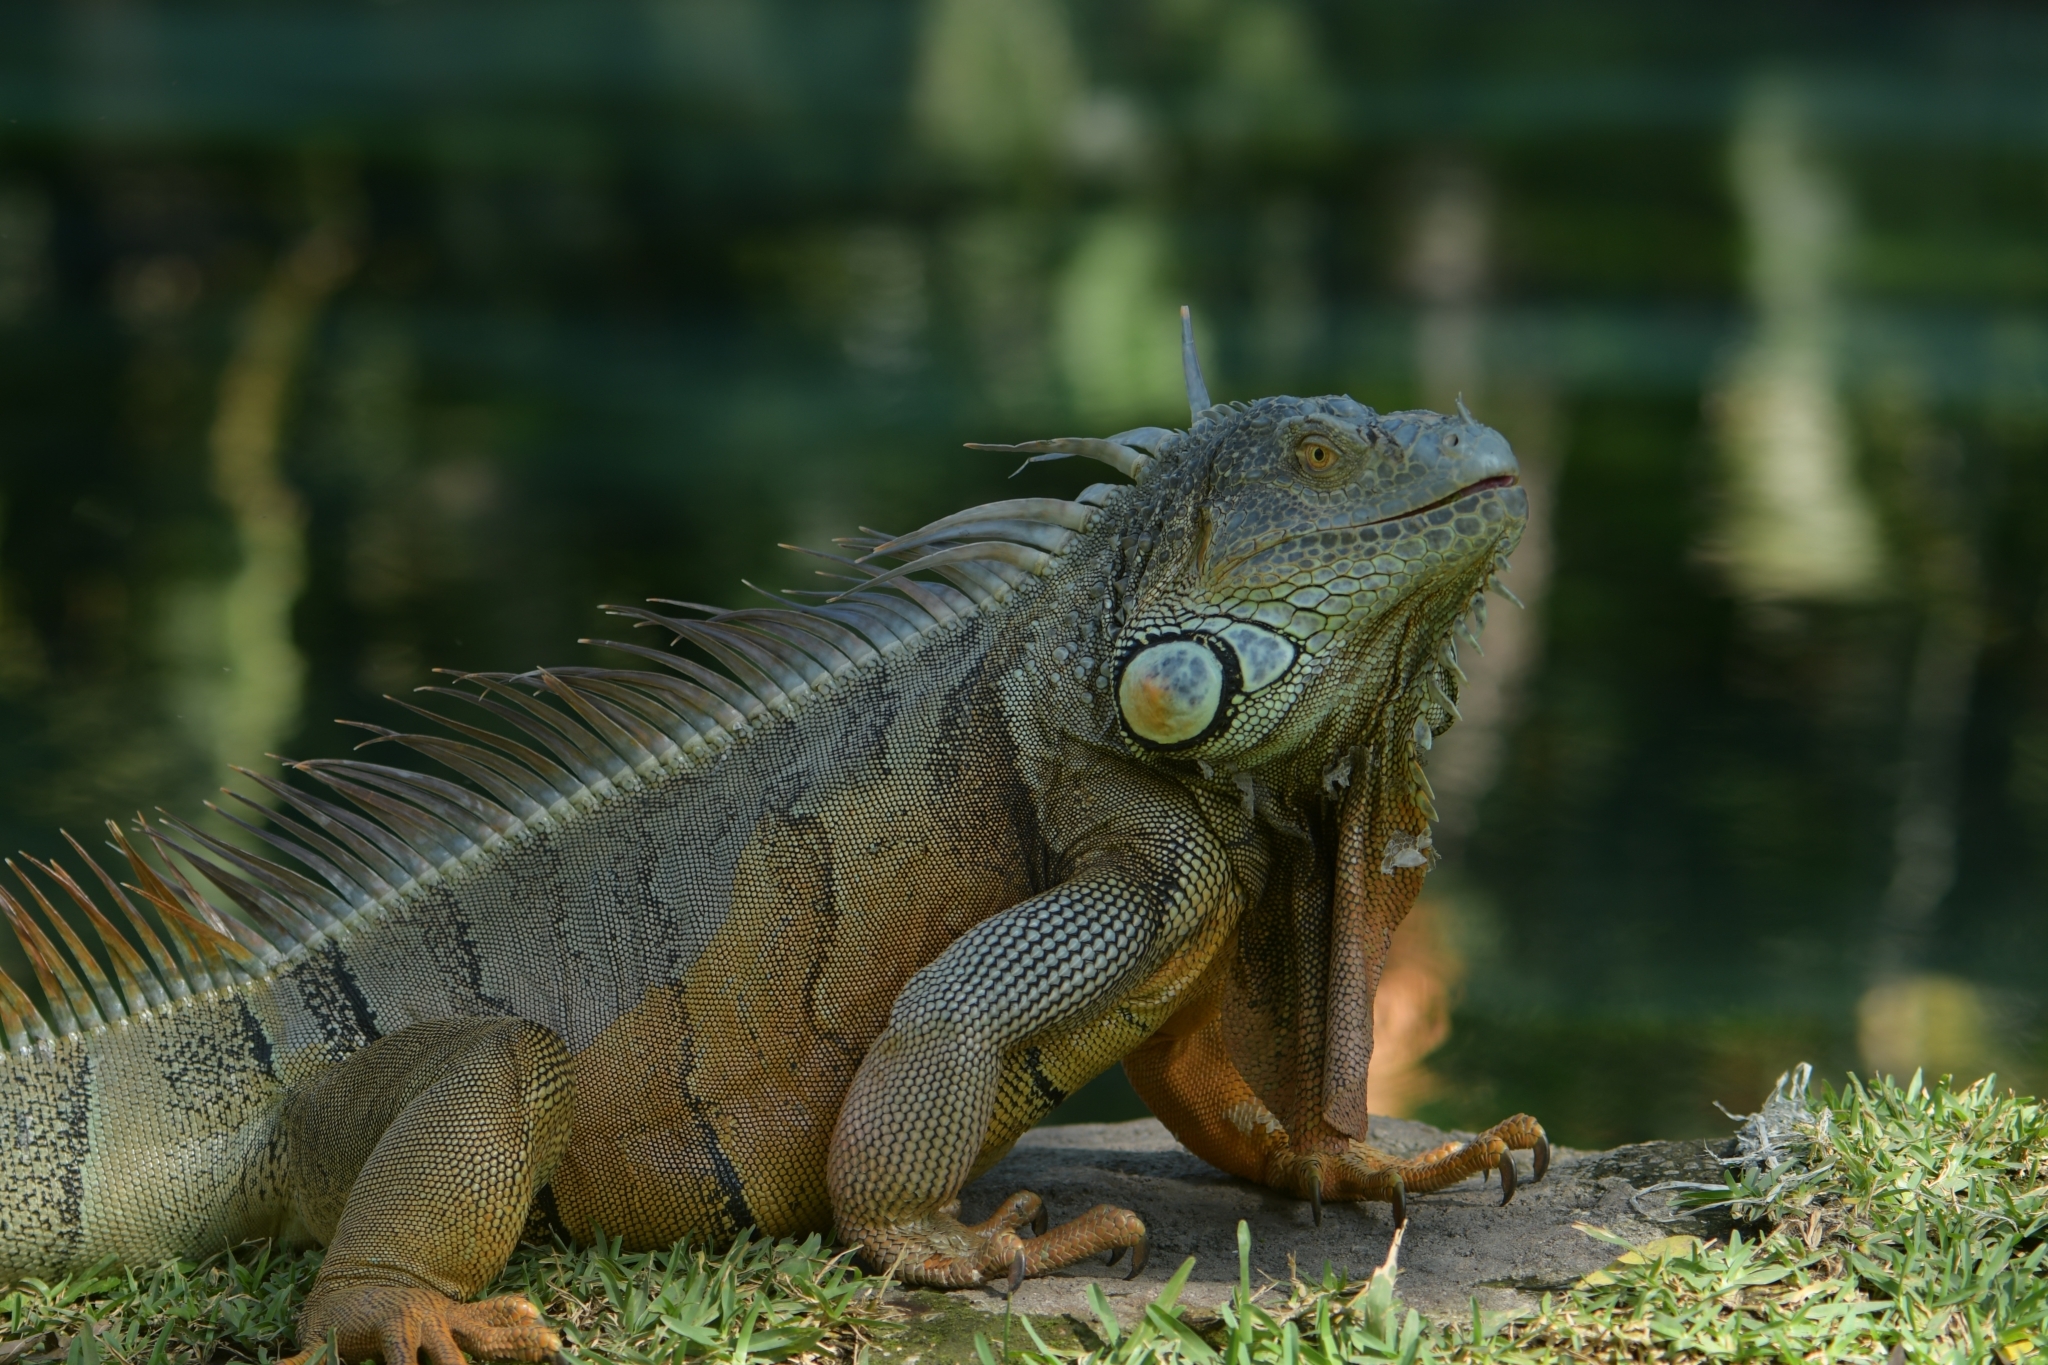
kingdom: Animalia
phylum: Chordata
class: Squamata
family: Iguanidae
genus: Iguana
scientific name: Iguana iguana
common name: Green iguana
